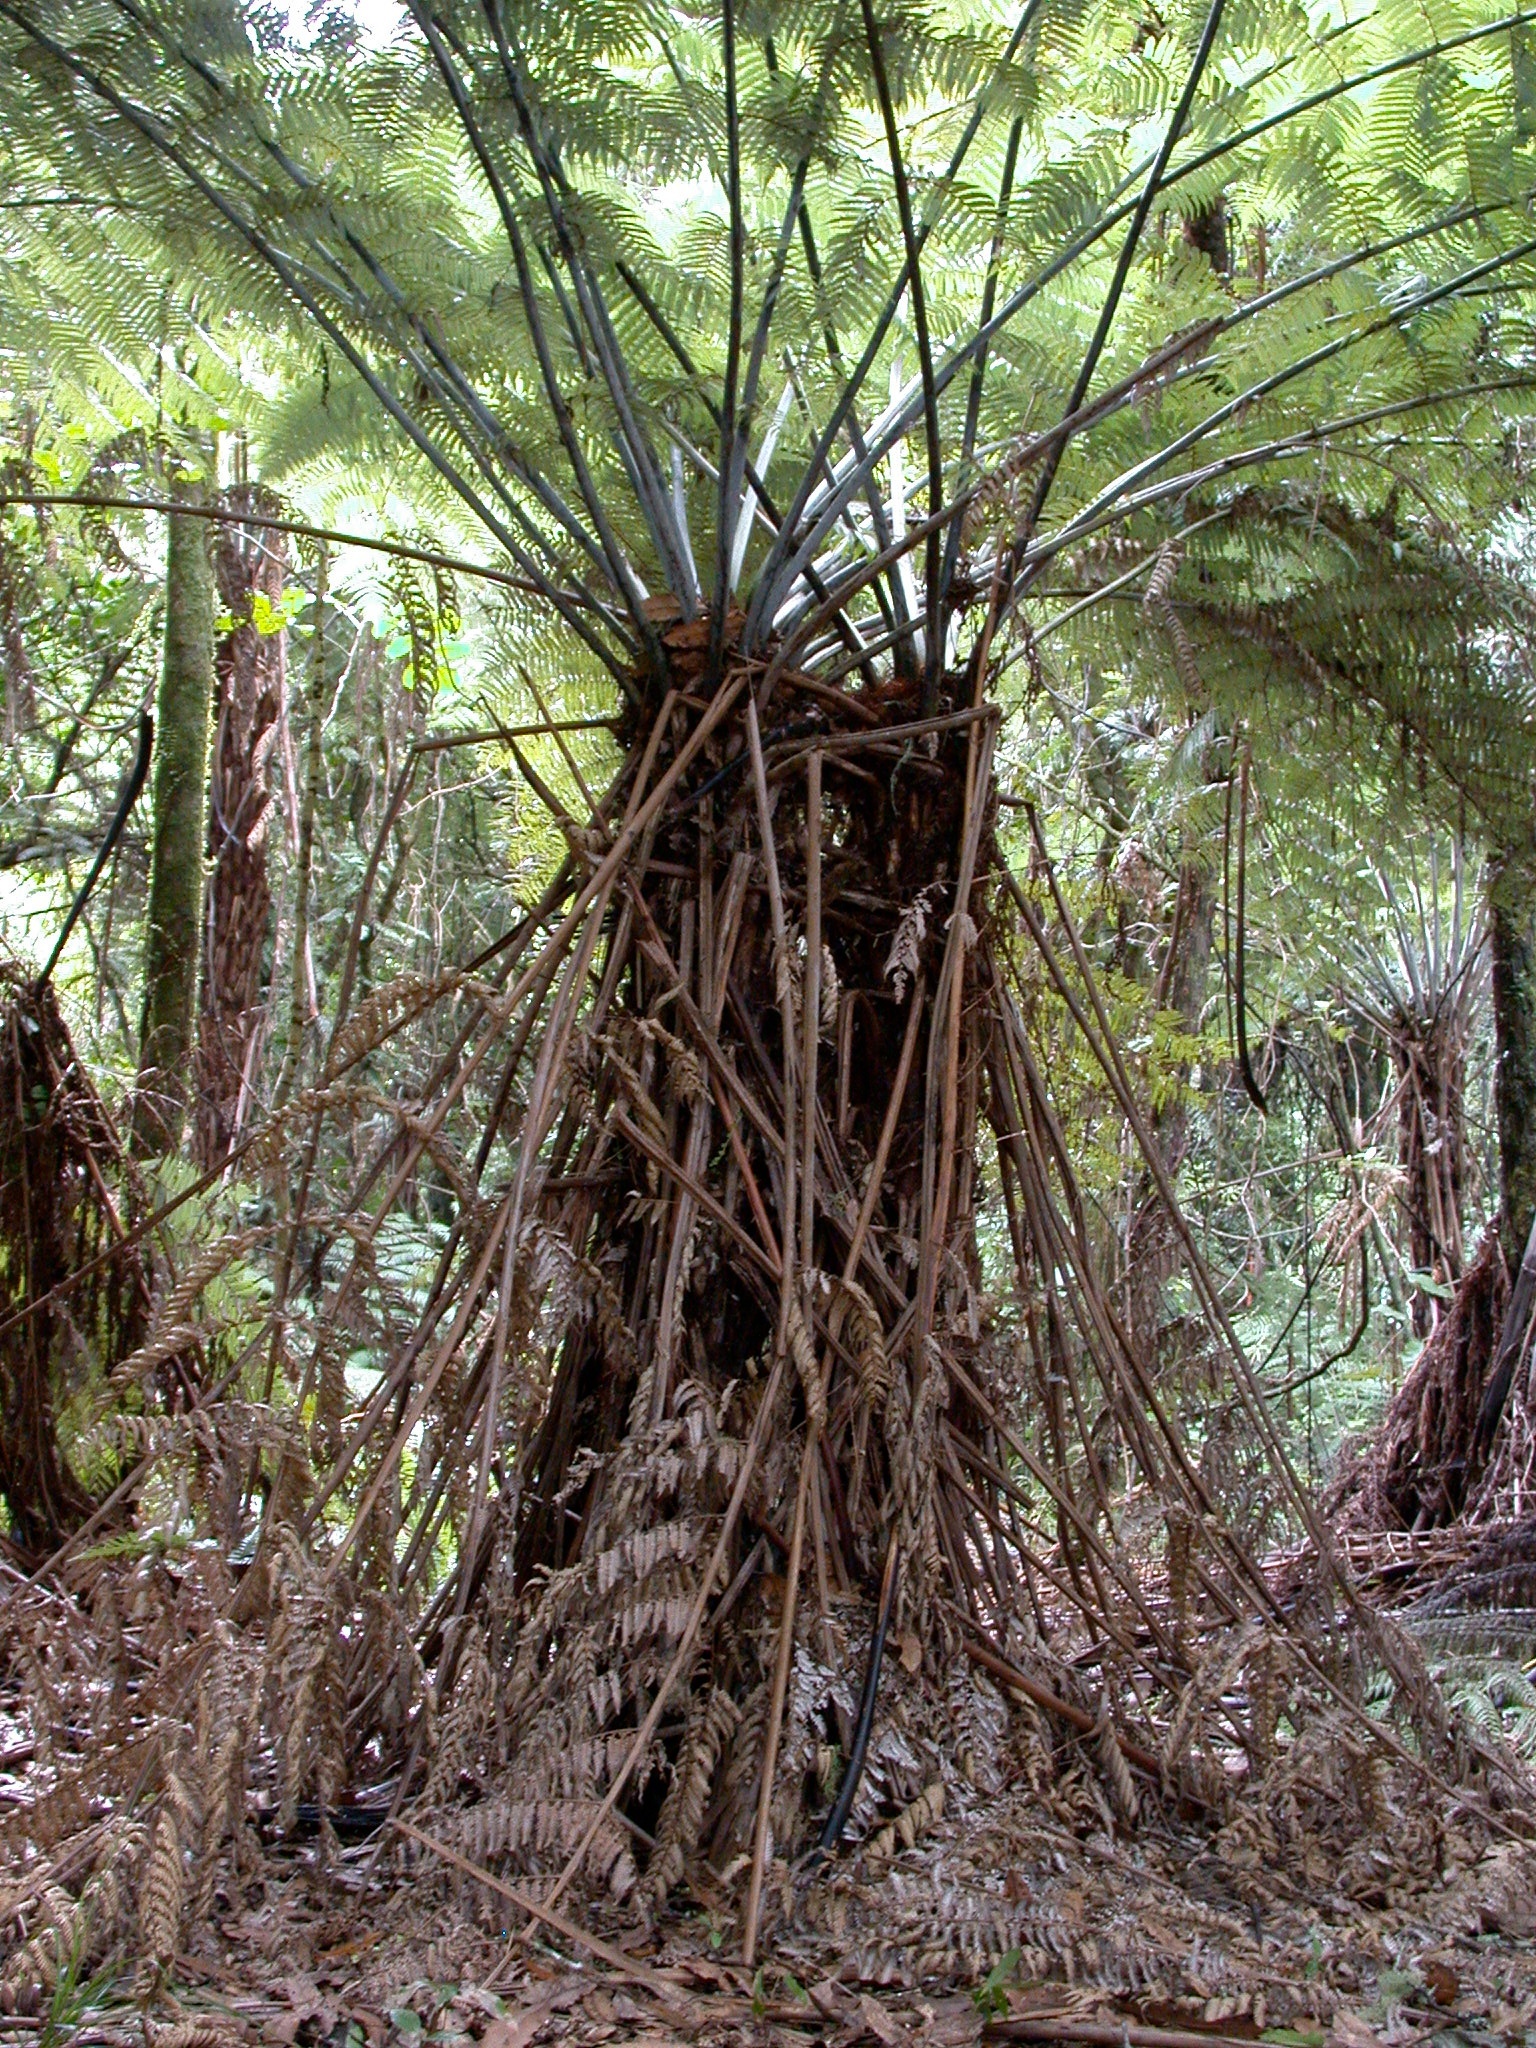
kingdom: Plantae
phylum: Tracheophyta
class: Polypodiopsida
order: Cyatheales
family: Cyatheaceae
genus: Alsophila
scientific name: Alsophila dealbata
